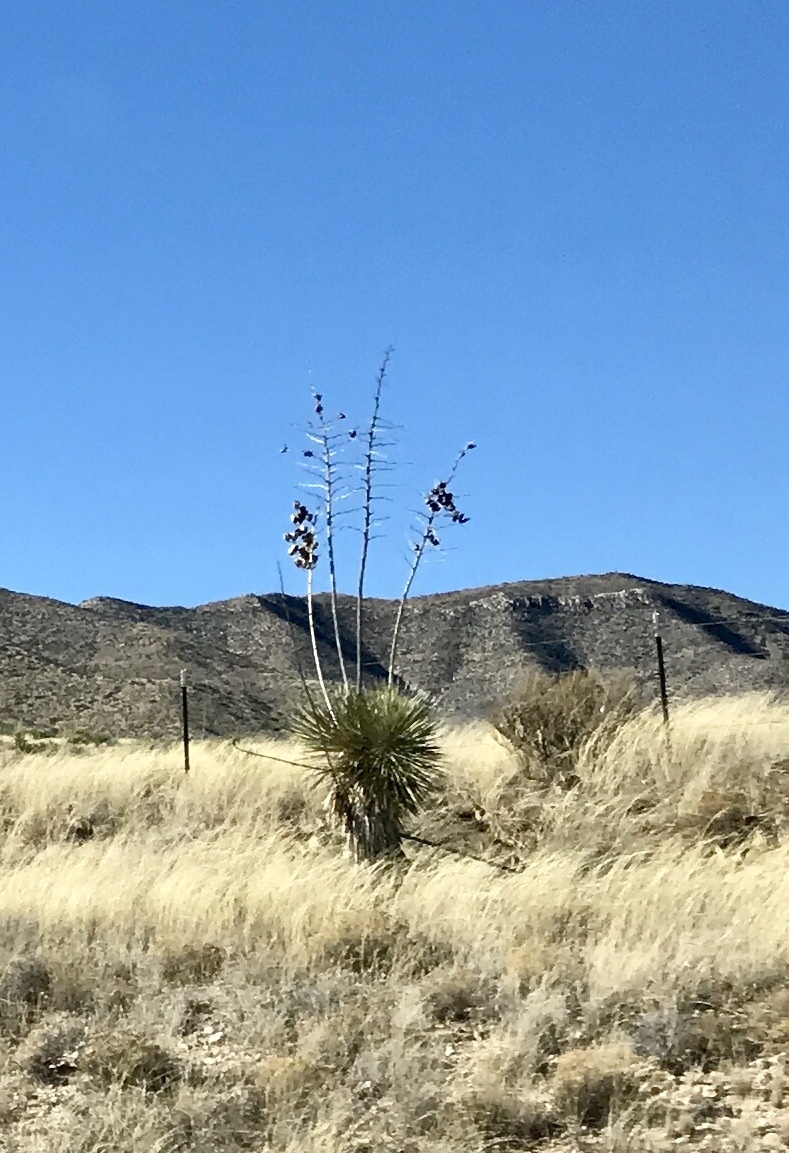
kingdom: Plantae
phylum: Tracheophyta
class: Liliopsida
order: Asparagales
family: Asparagaceae
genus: Yucca
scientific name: Yucca elata
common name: Palmella
